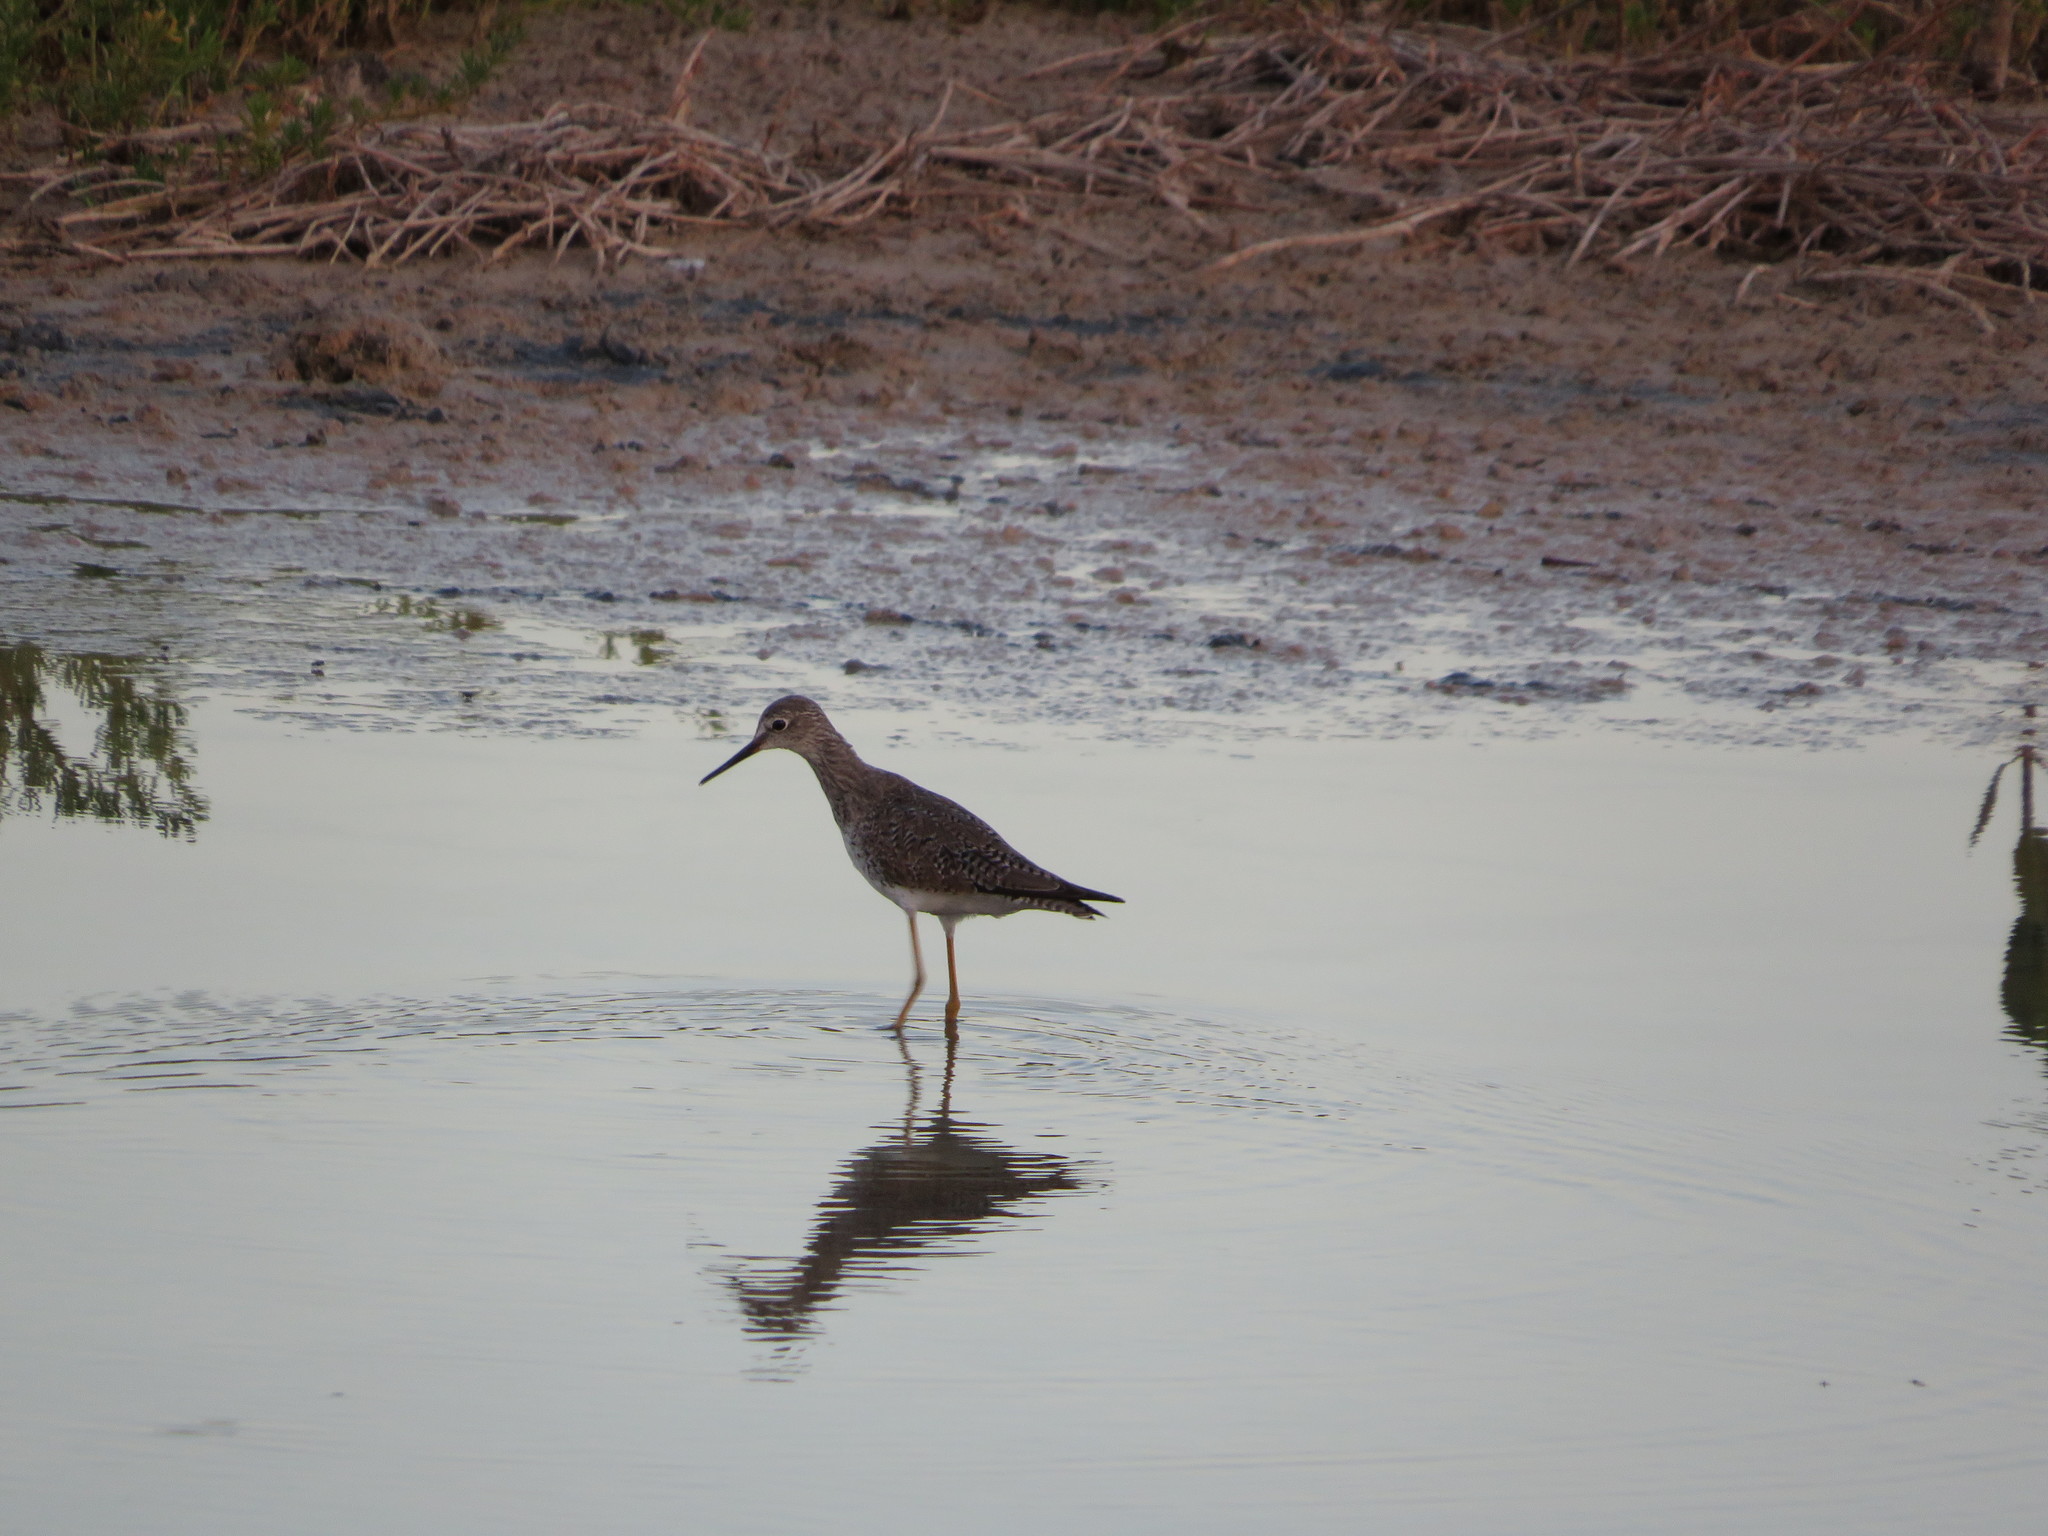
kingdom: Animalia
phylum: Chordata
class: Aves
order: Charadriiformes
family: Scolopacidae
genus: Tringa
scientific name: Tringa flavipes
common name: Lesser yellowlegs
